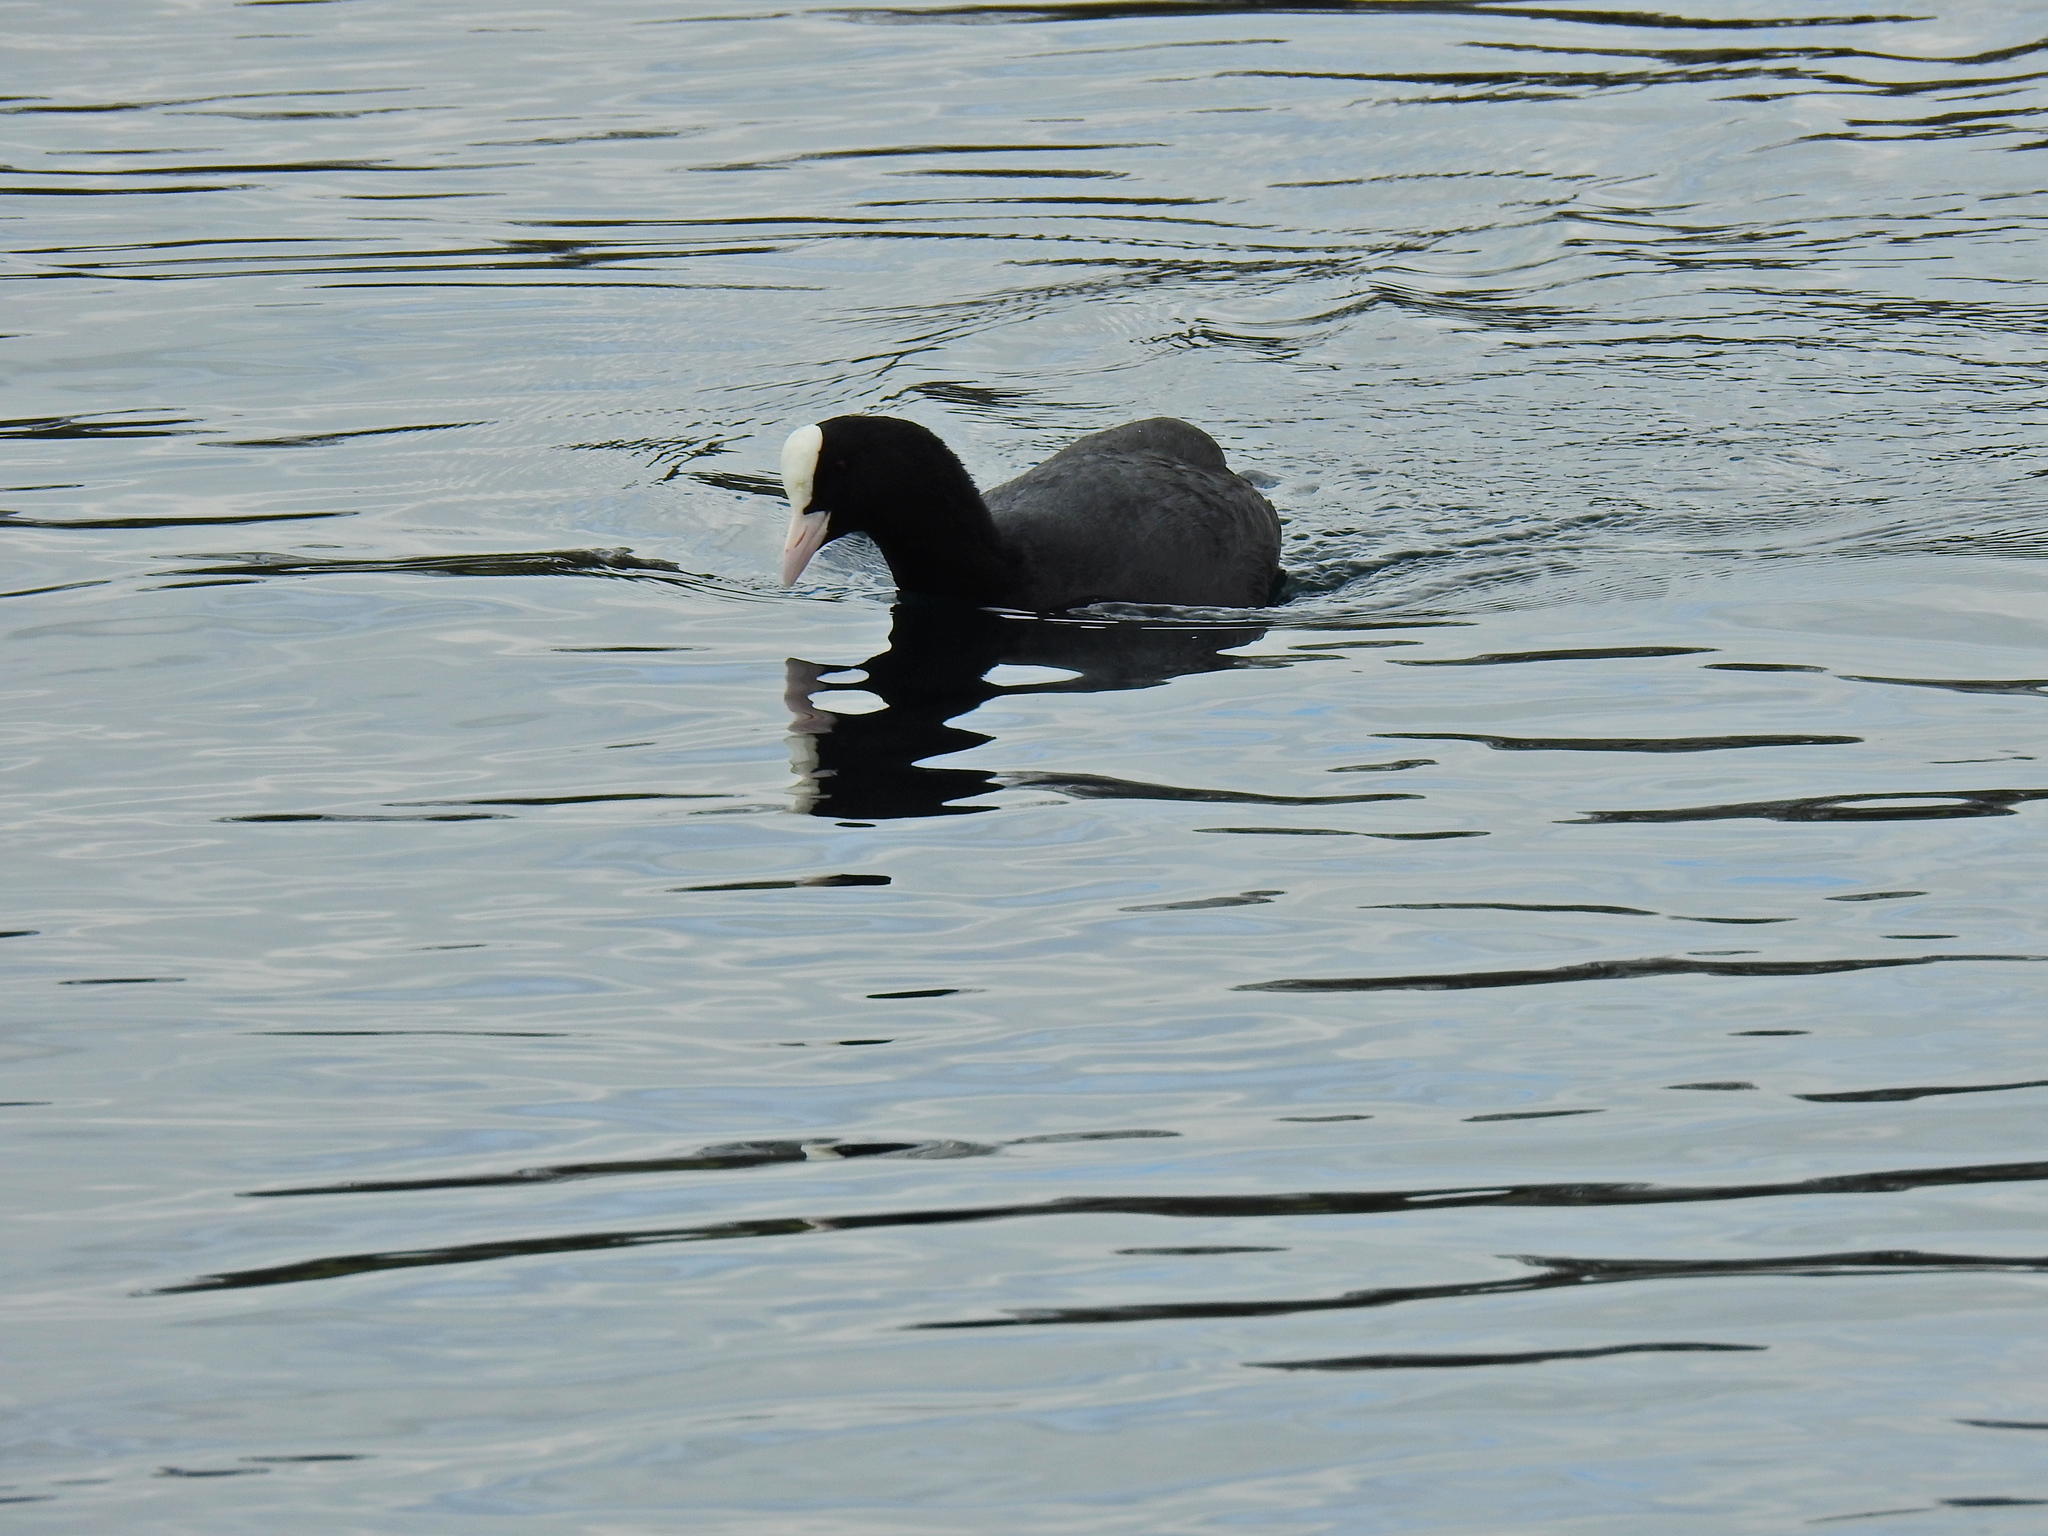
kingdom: Animalia
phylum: Chordata
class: Aves
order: Gruiformes
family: Rallidae
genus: Fulica
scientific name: Fulica atra
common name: Eurasian coot
